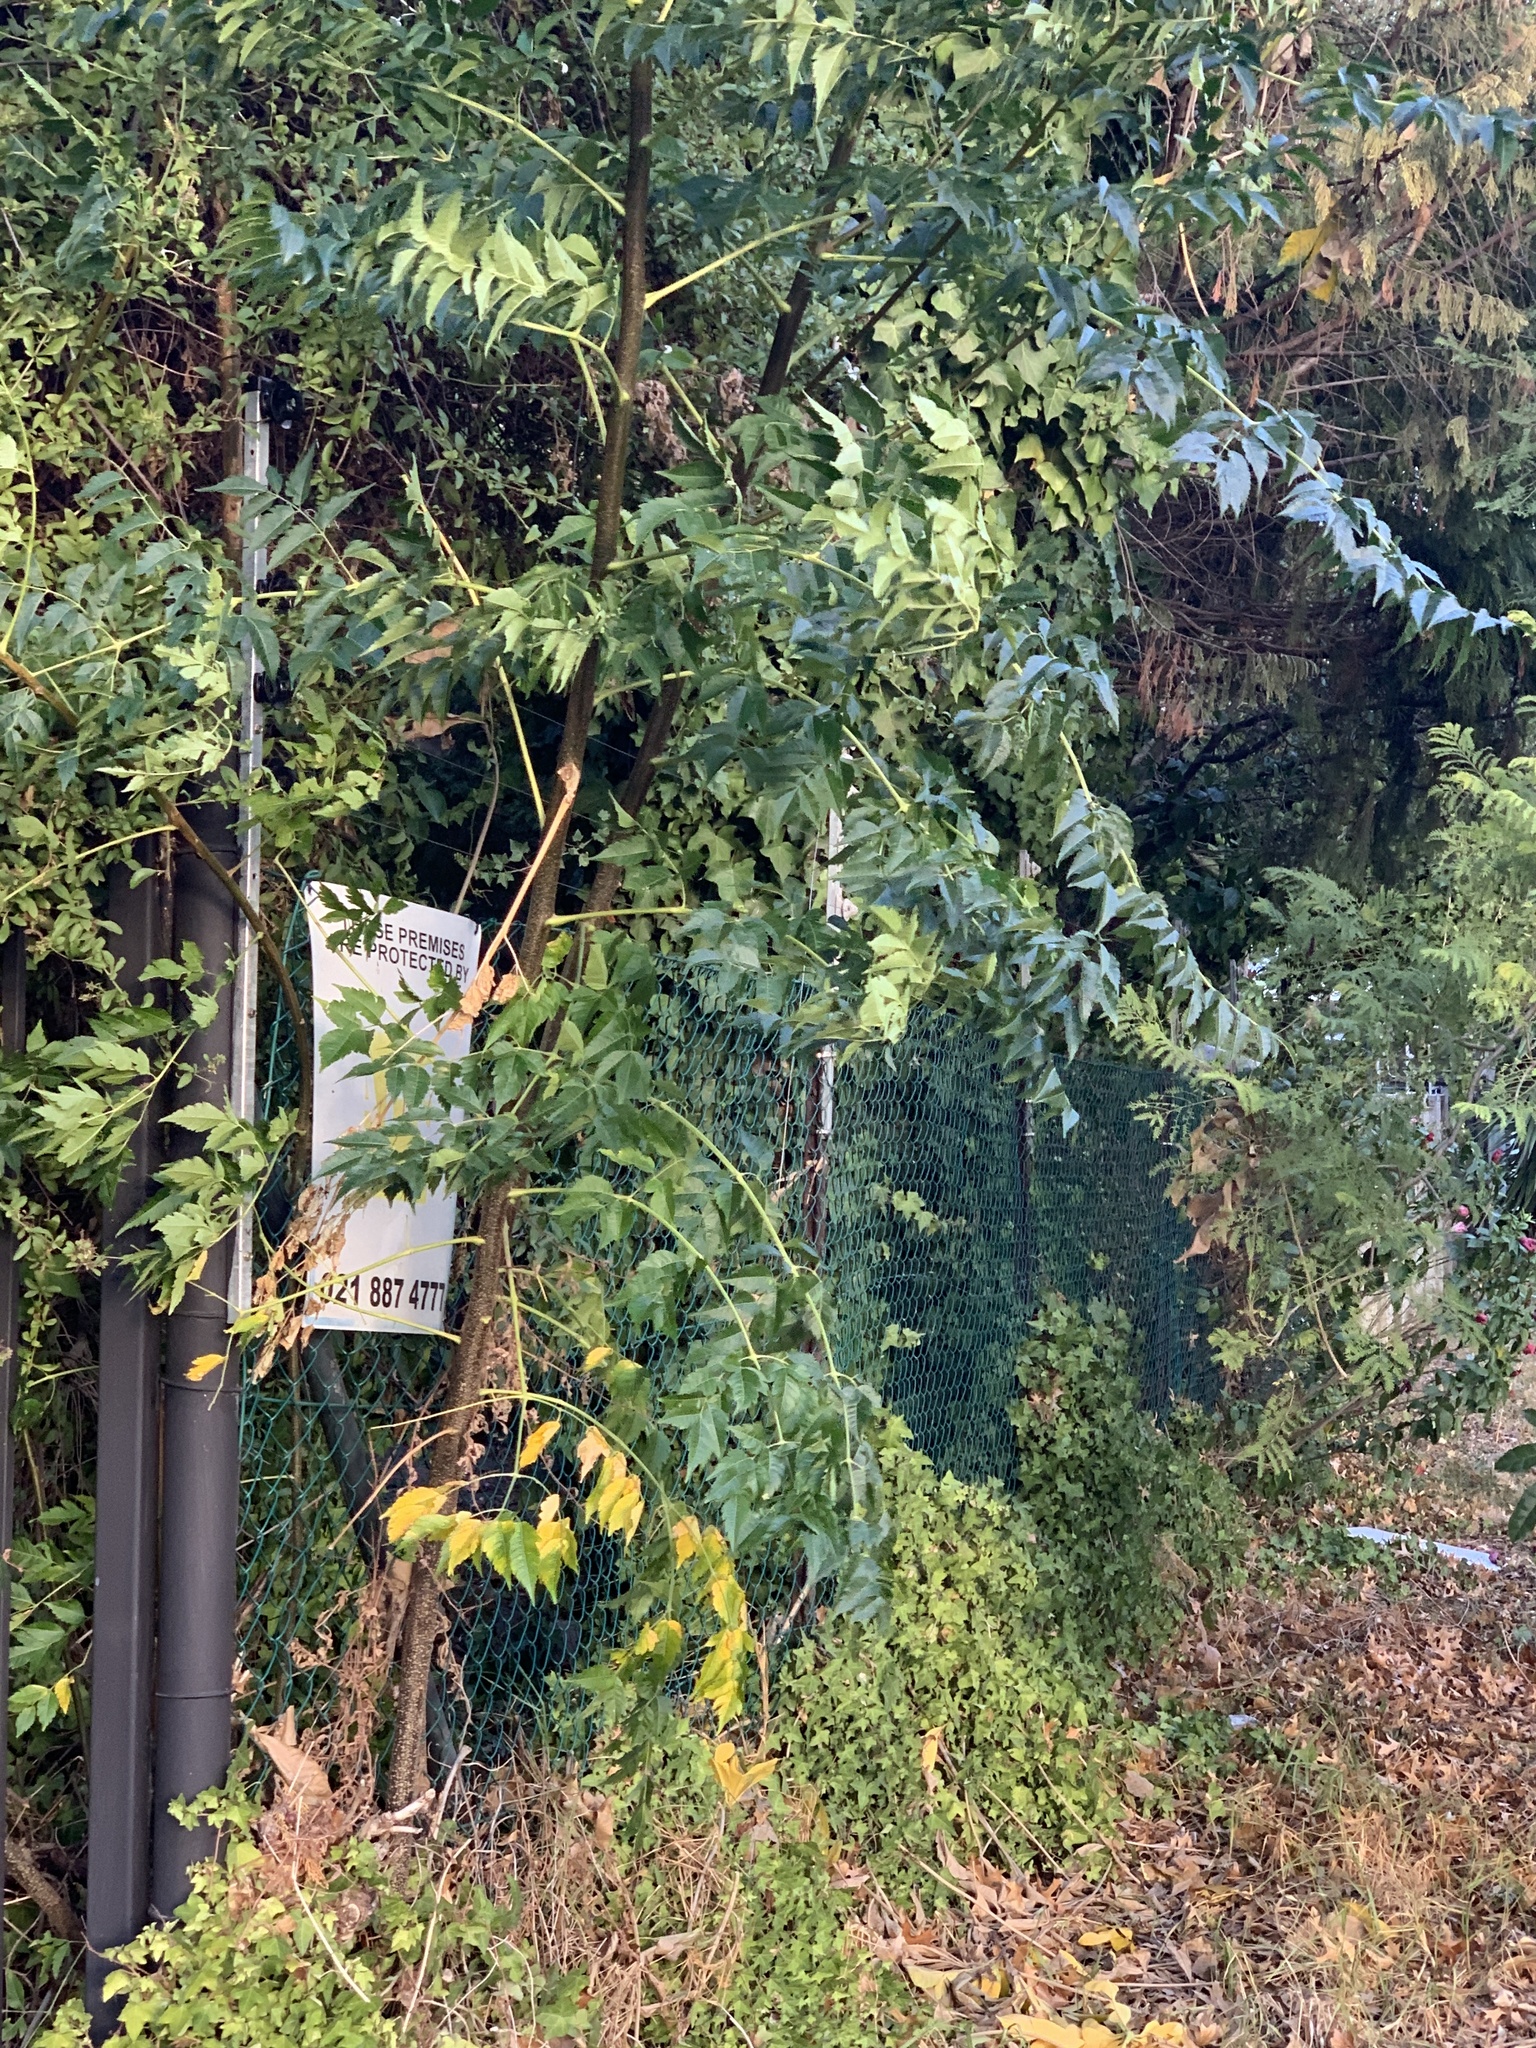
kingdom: Plantae
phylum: Tracheophyta
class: Magnoliopsida
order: Sapindales
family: Meliaceae
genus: Melia
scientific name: Melia azedarach
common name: Chinaberrytree
